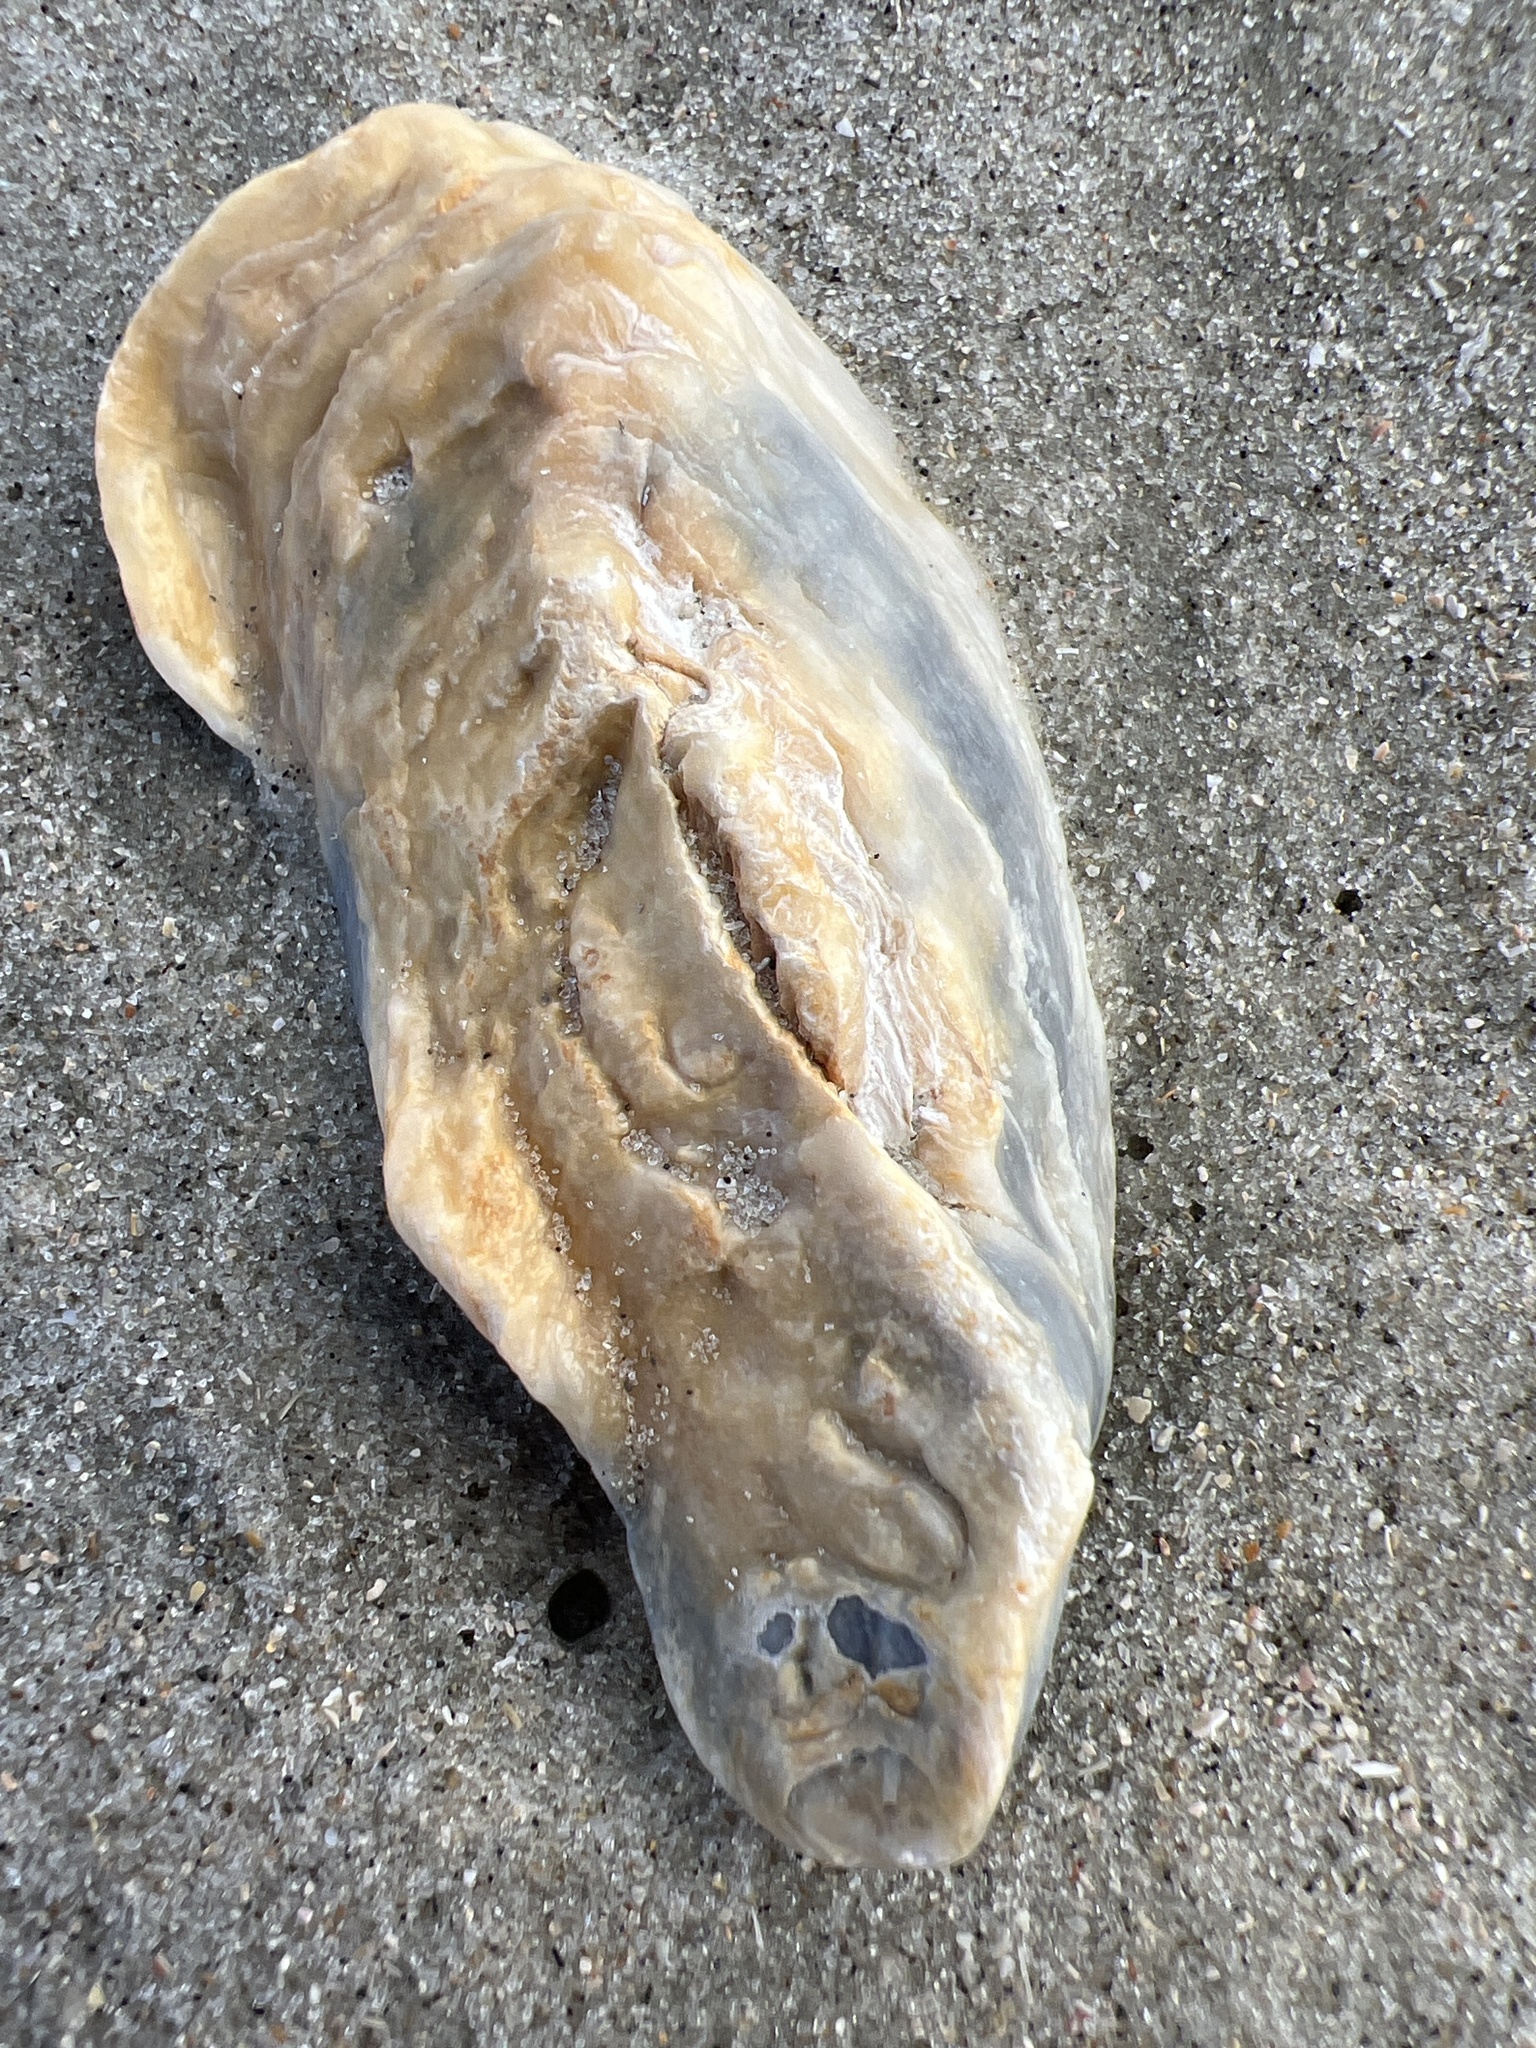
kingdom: Animalia
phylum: Mollusca
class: Bivalvia
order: Ostreida
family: Ostreidae
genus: Crassostrea
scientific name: Crassostrea virginica
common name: American oyster
